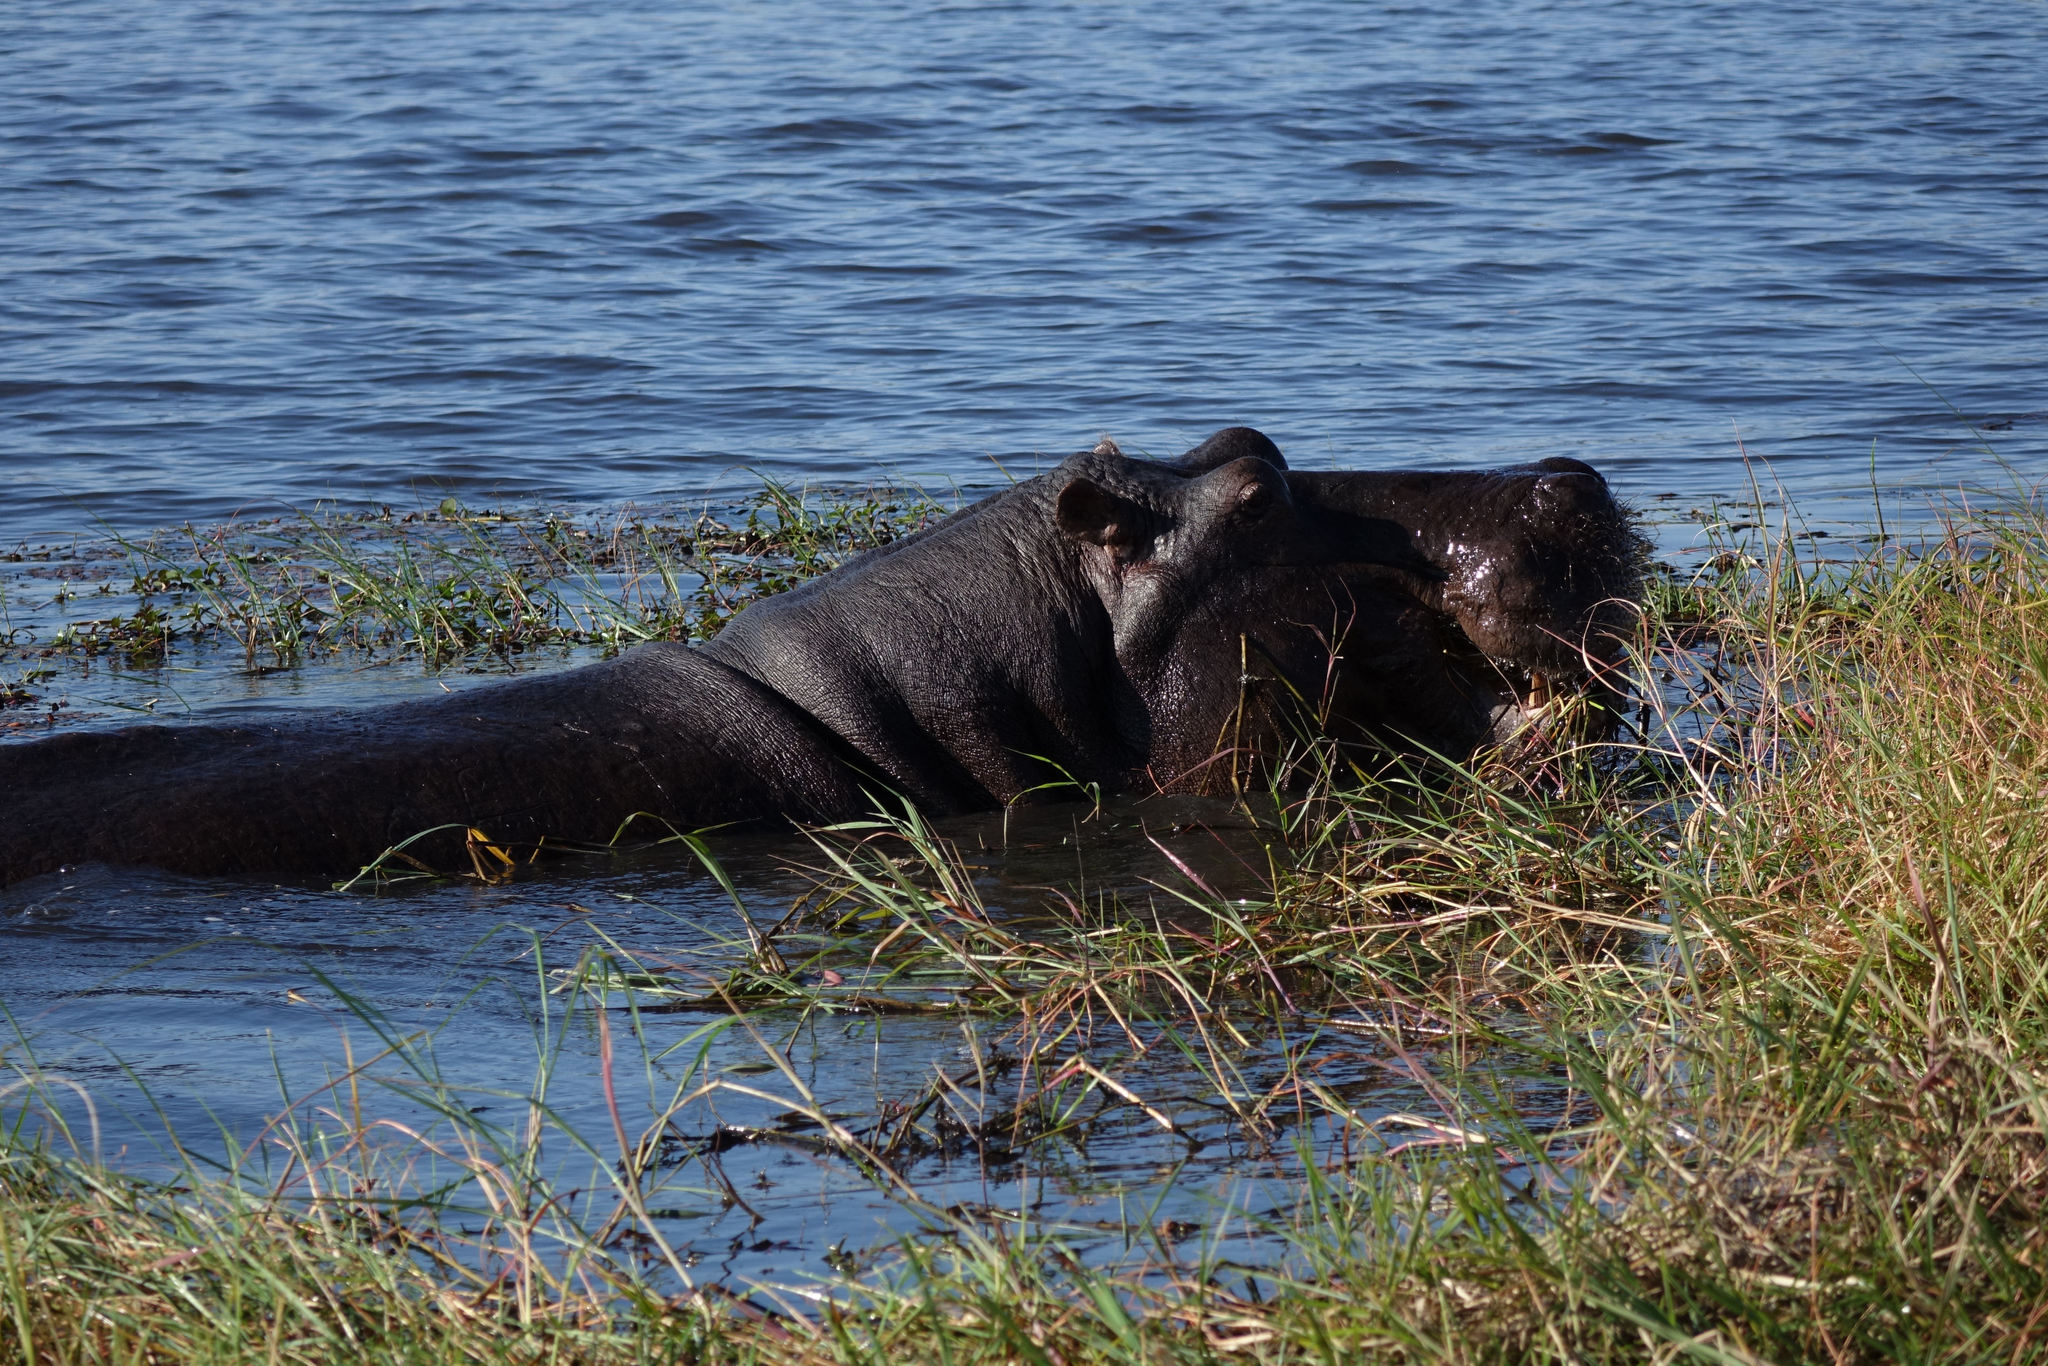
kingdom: Animalia
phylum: Chordata
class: Mammalia
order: Artiodactyla
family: Hippopotamidae
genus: Hippopotamus
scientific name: Hippopotamus amphibius
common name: Common hippopotamus
